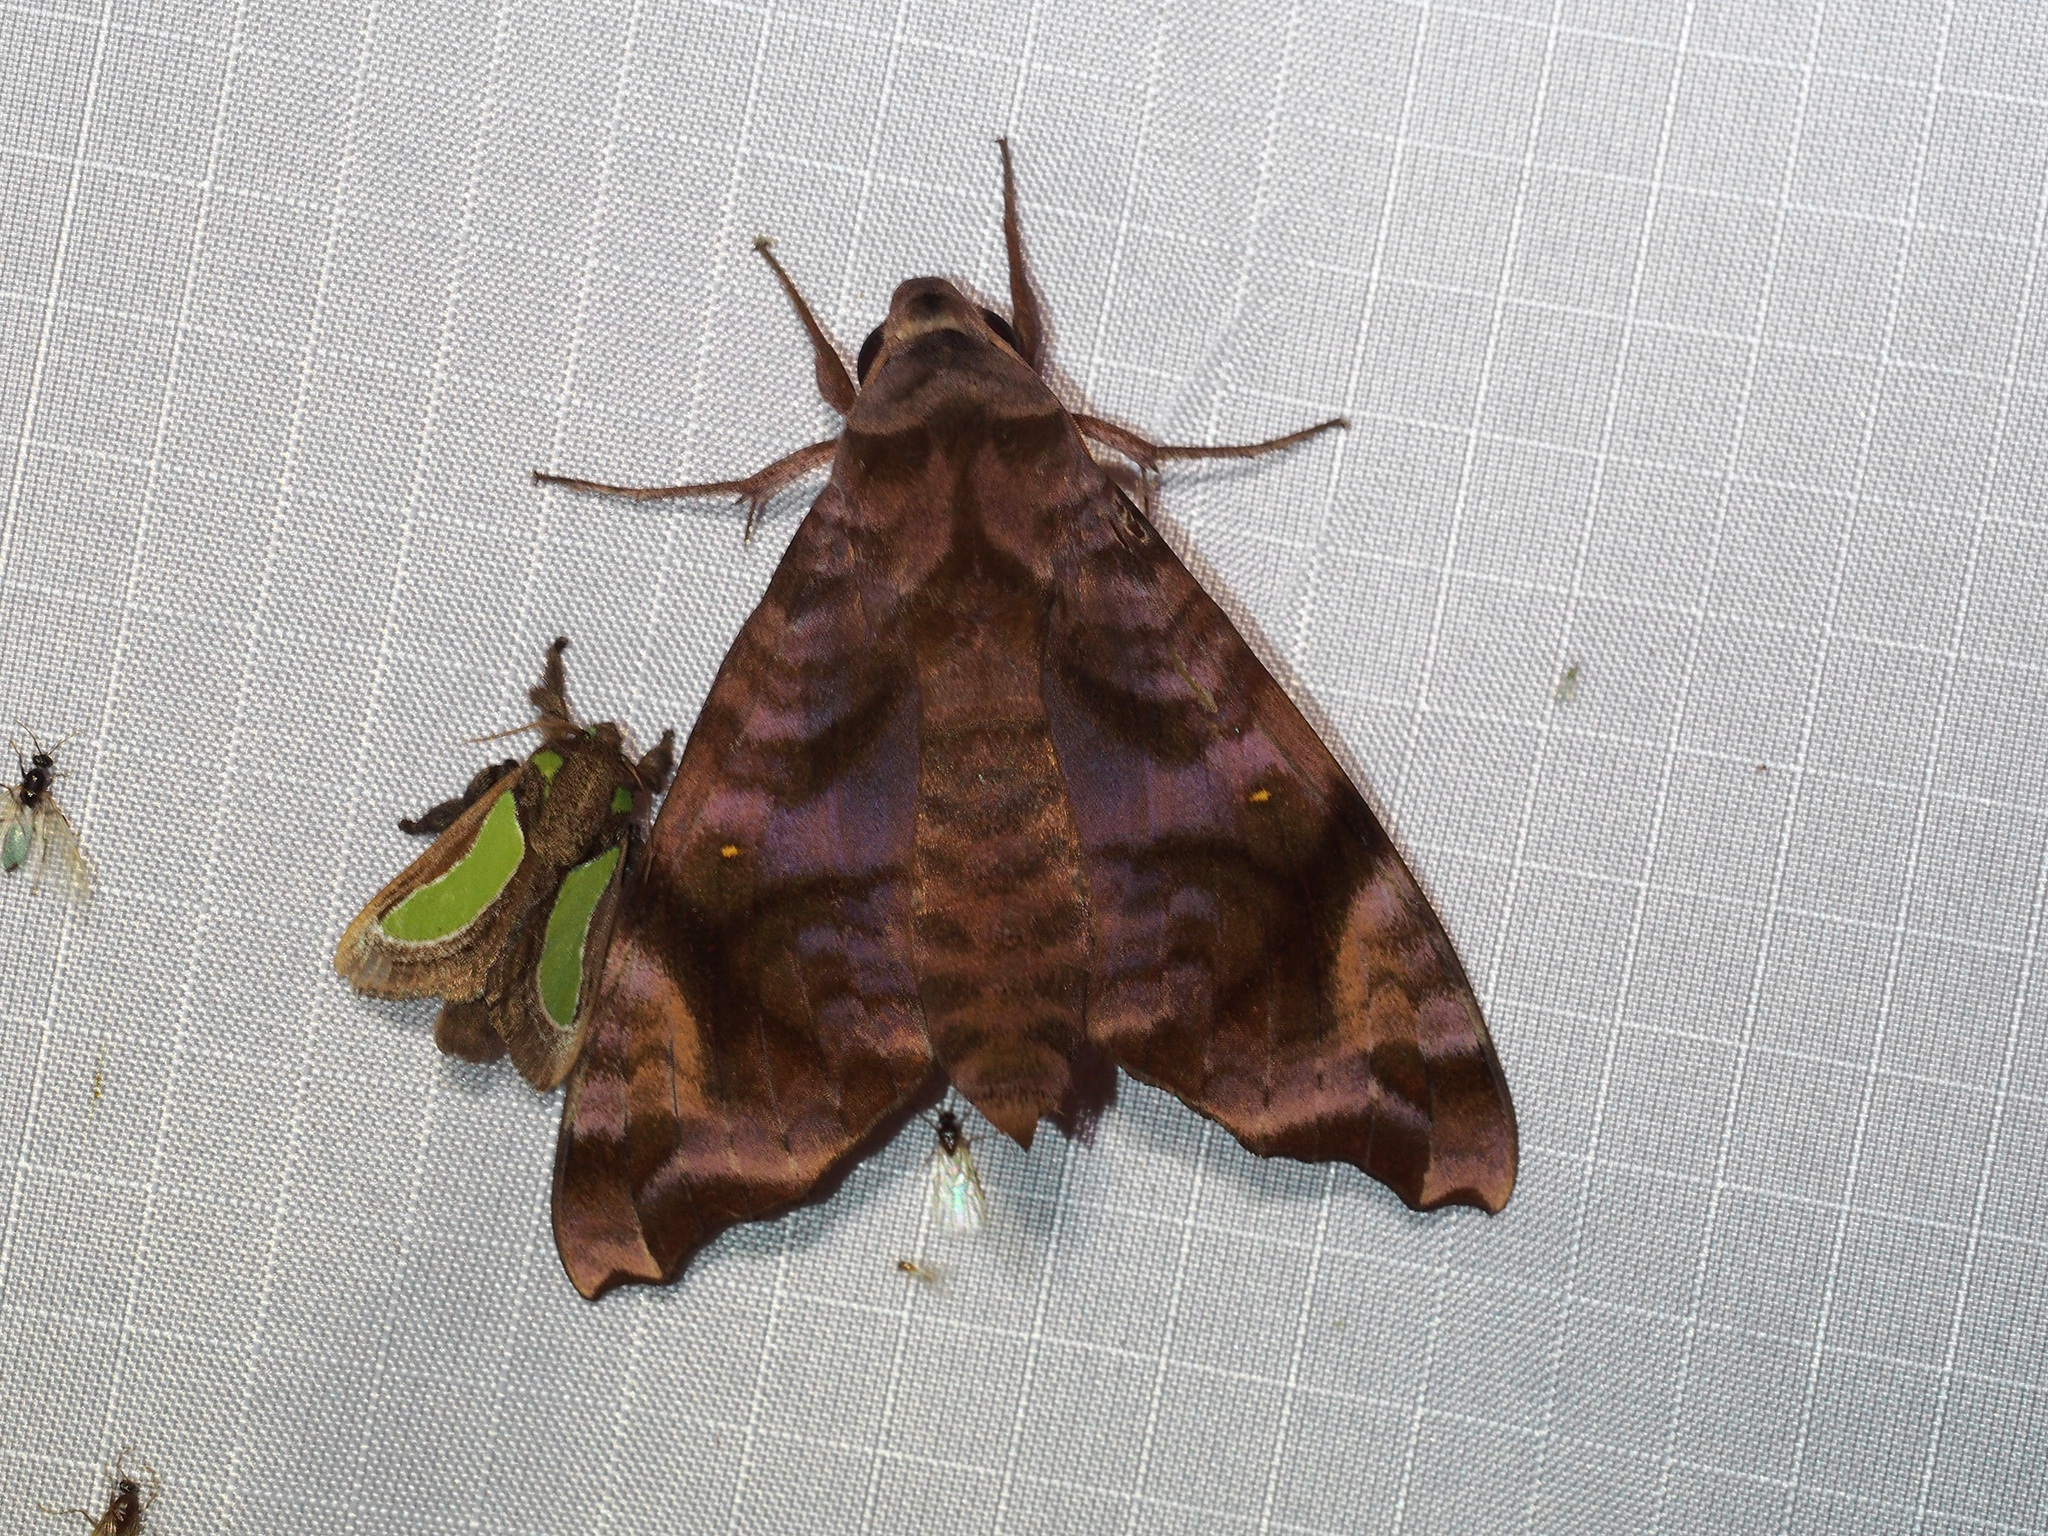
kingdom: Animalia
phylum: Arthropoda
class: Insecta
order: Lepidoptera
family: Sphingidae
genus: Acosmeryx
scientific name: Acosmeryx anceus
